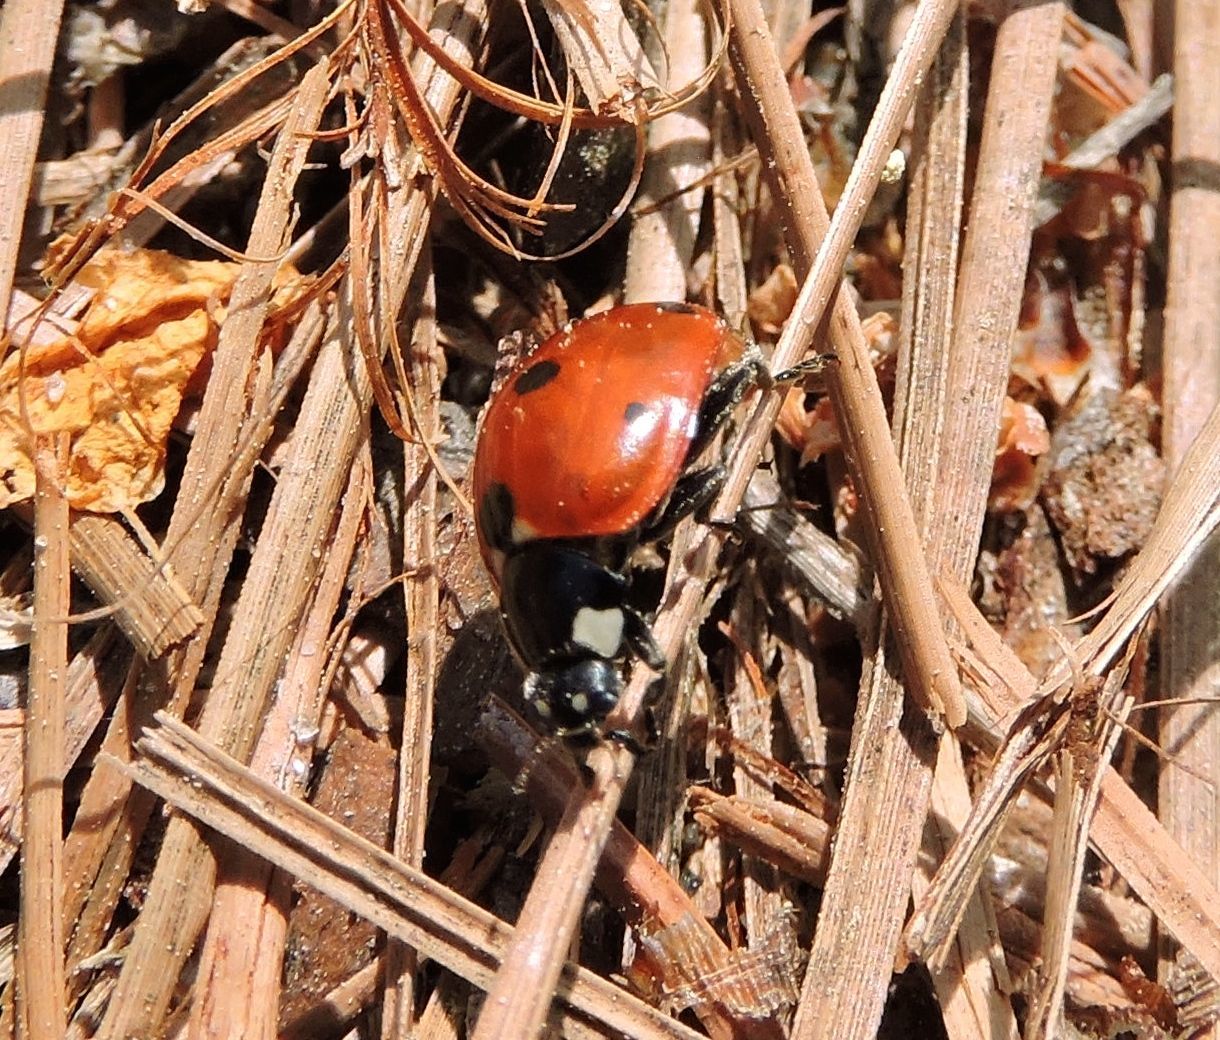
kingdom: Animalia
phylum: Arthropoda
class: Insecta
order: Coleoptera
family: Coccinellidae
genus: Coccinella
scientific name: Coccinella septempunctata
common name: Sevenspotted lady beetle
